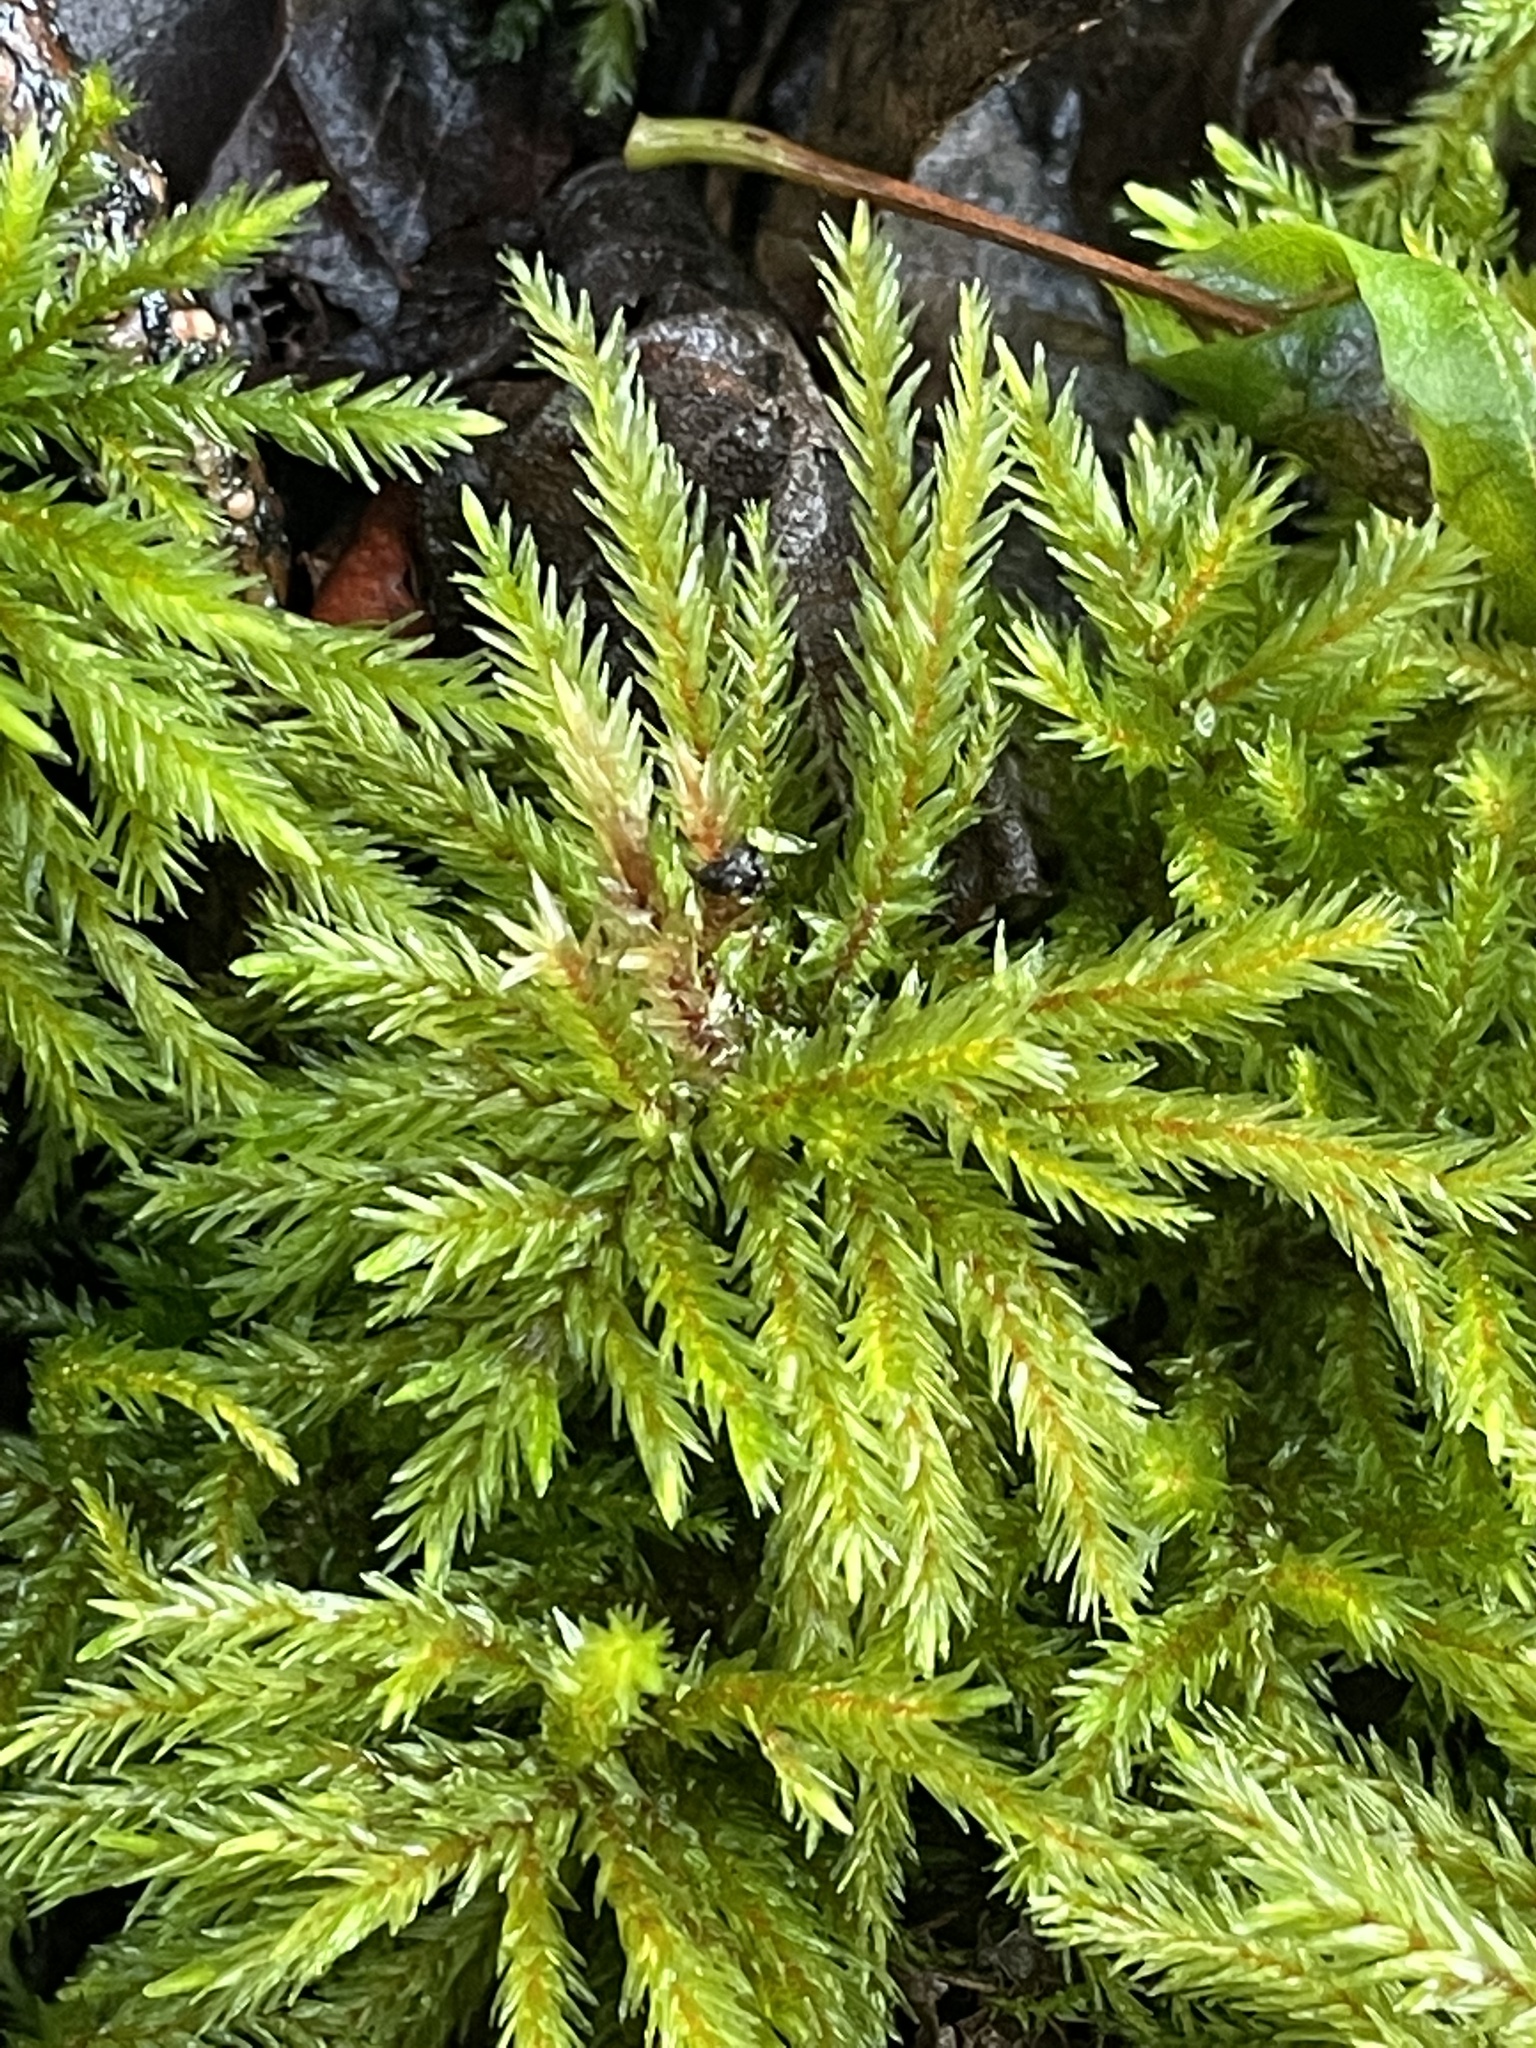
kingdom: Plantae
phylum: Bryophyta
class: Bryopsida
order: Hypnales
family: Climaciaceae
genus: Climacium
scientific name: Climacium dendroides
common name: Northern tree moss
